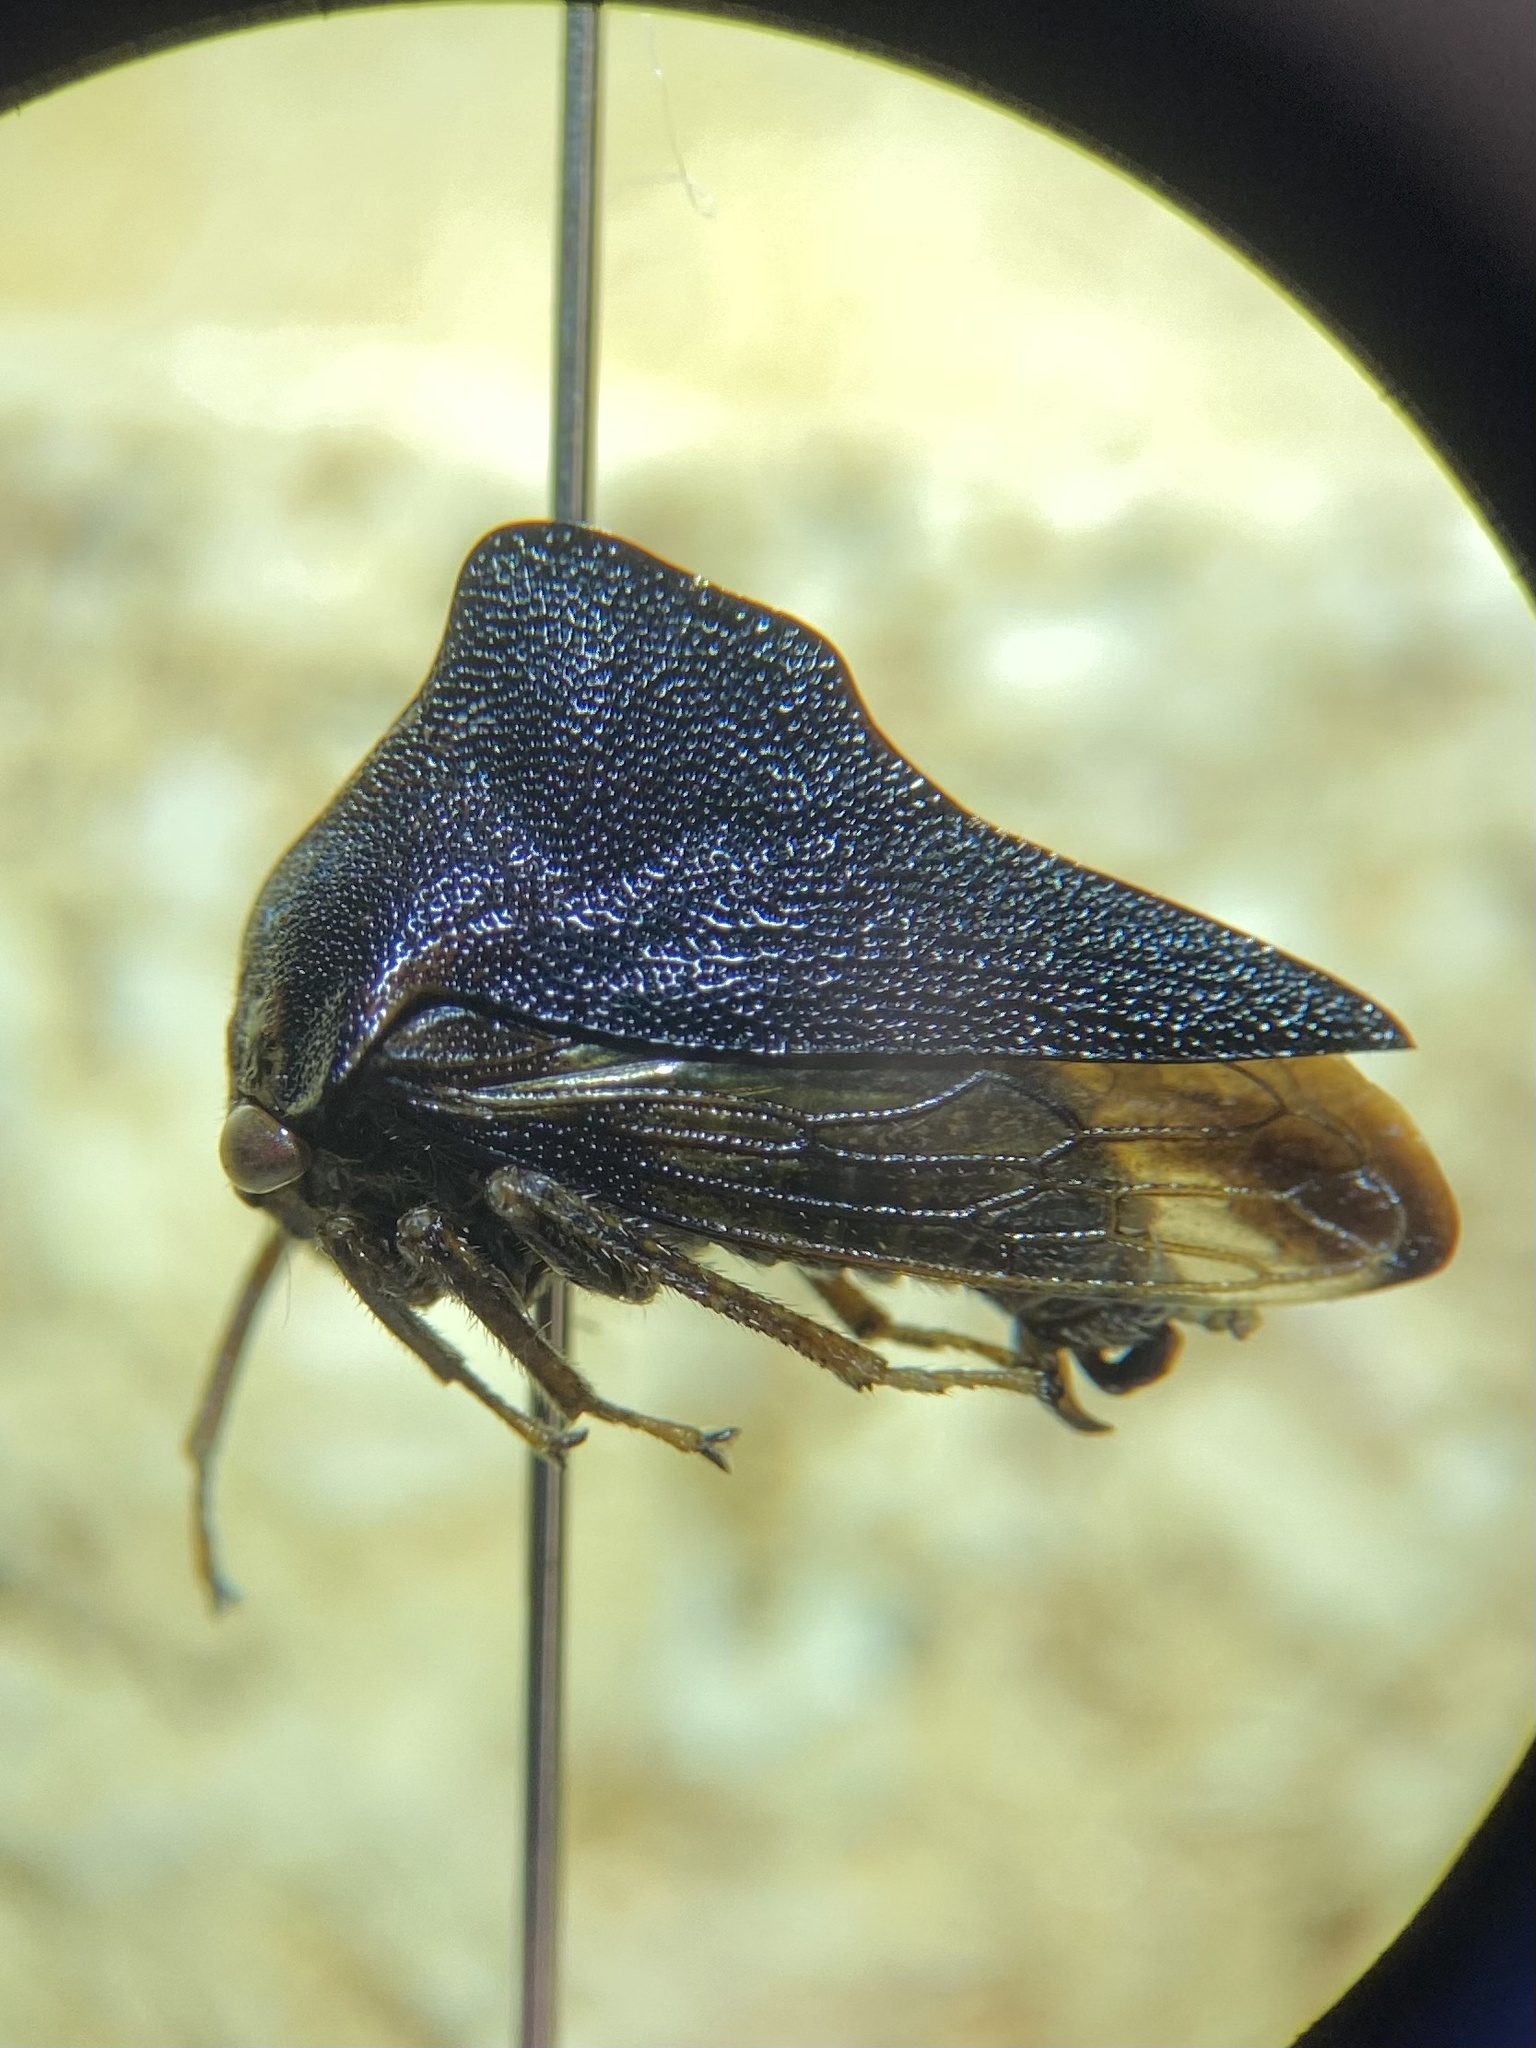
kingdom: Animalia
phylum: Arthropoda
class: Insecta
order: Hemiptera
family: Membracidae
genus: Telamona
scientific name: Telamona ampelopsidis
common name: Virginia creeper treehopper
